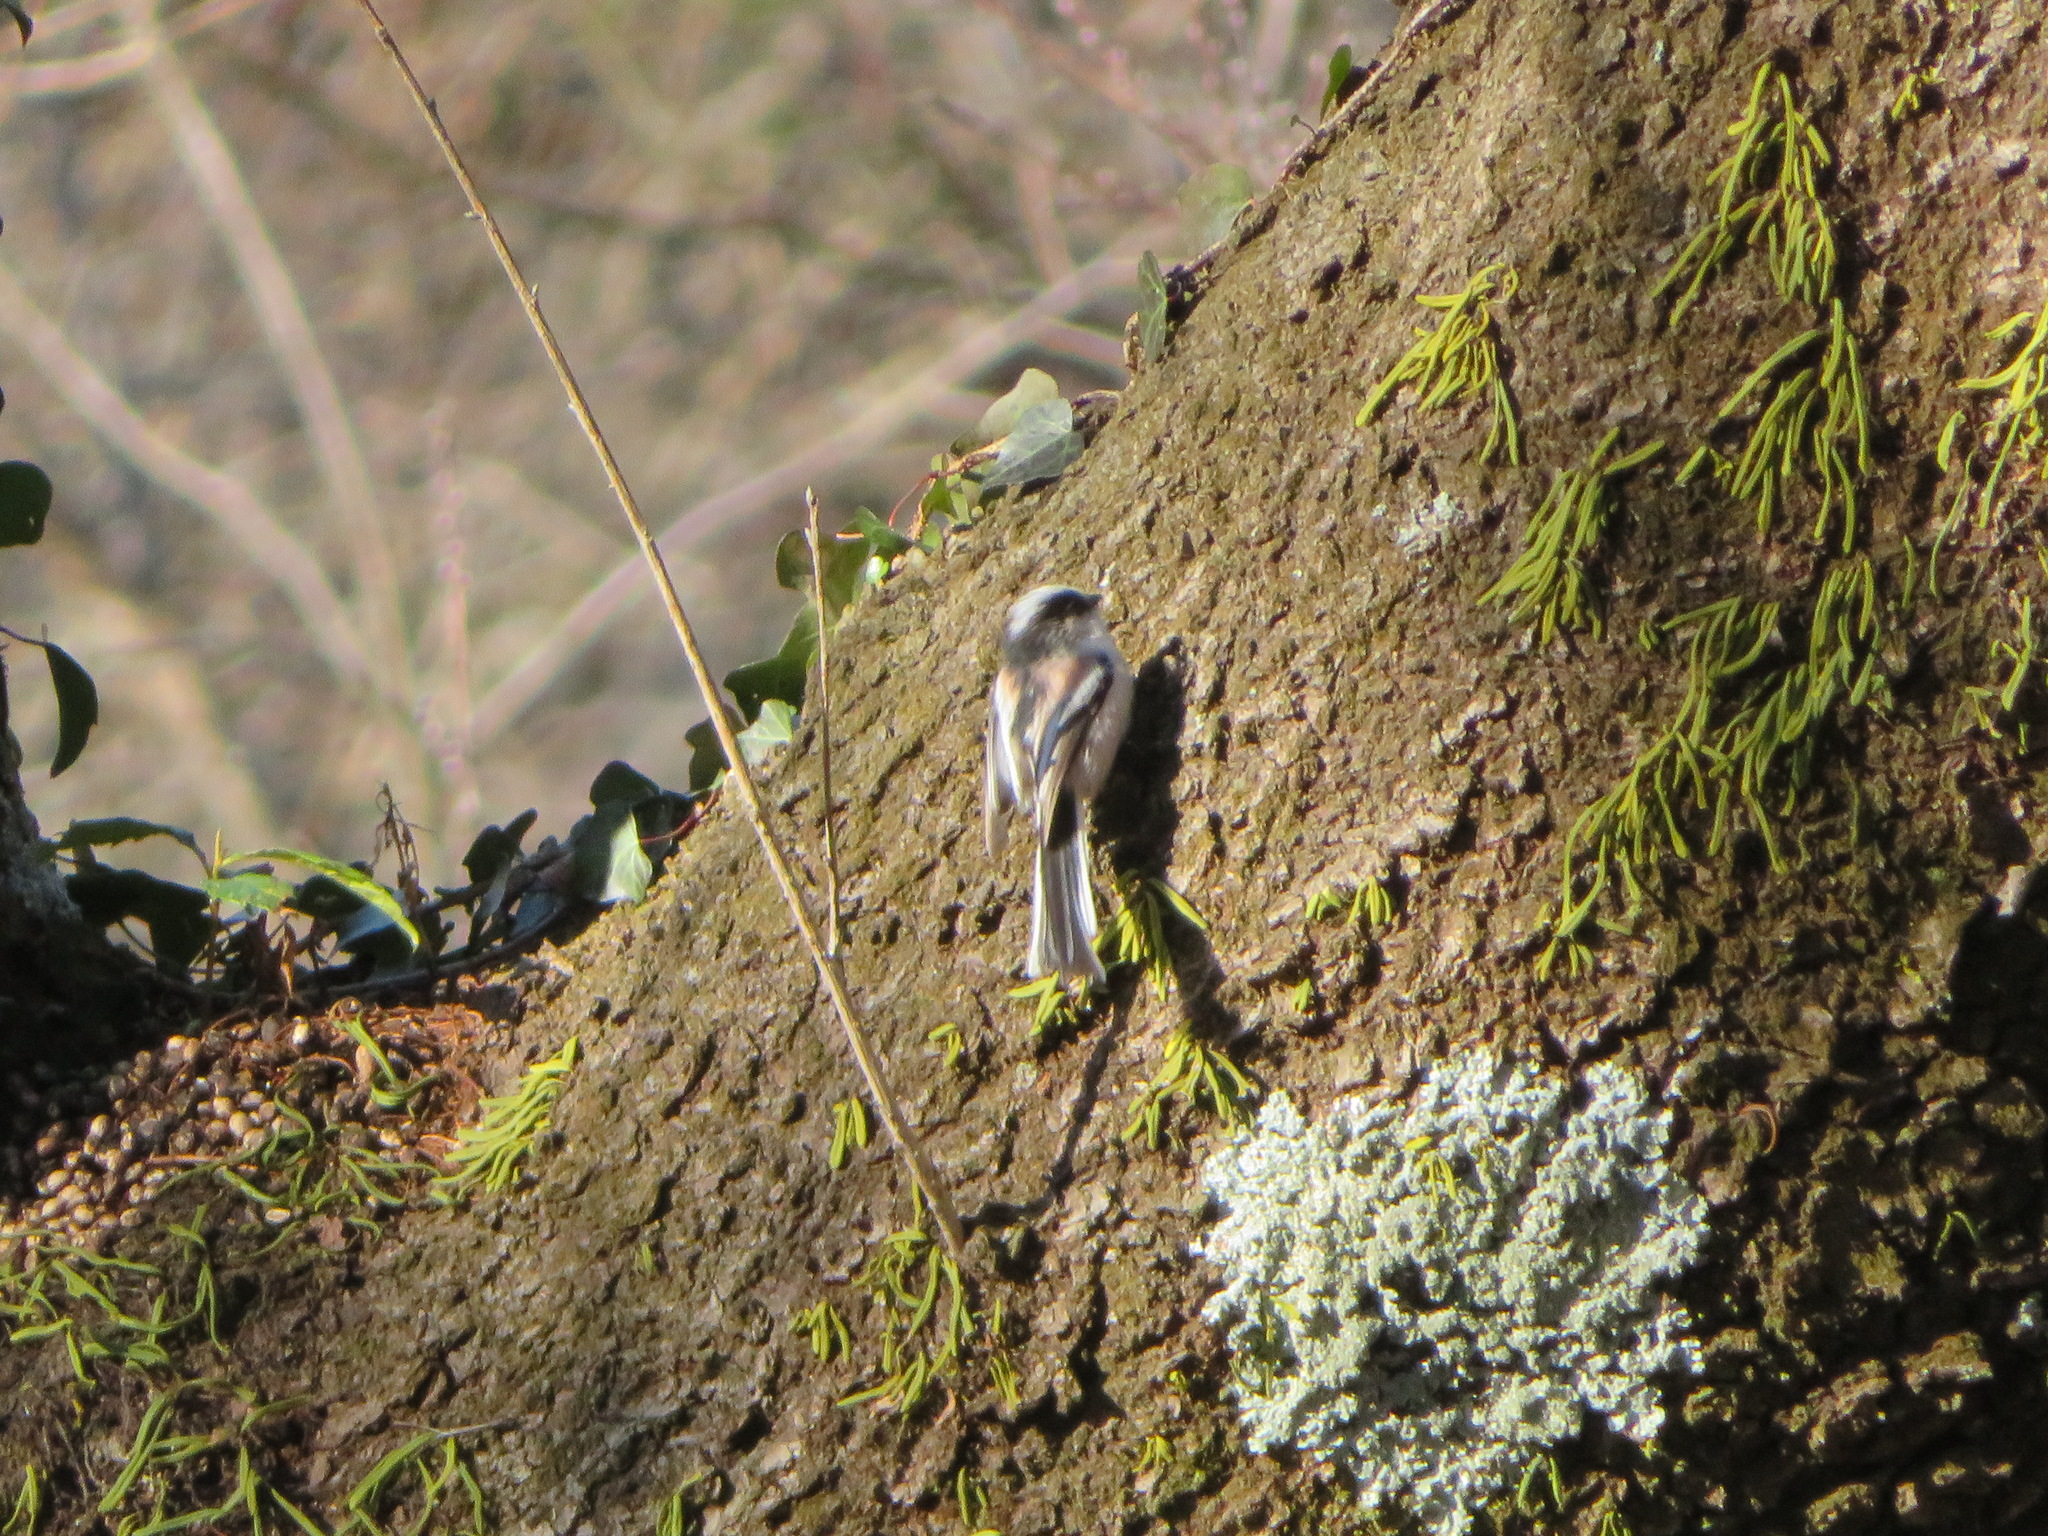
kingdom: Animalia
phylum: Chordata
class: Aves
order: Passeriformes
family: Aegithalidae
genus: Aegithalos
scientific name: Aegithalos caudatus
